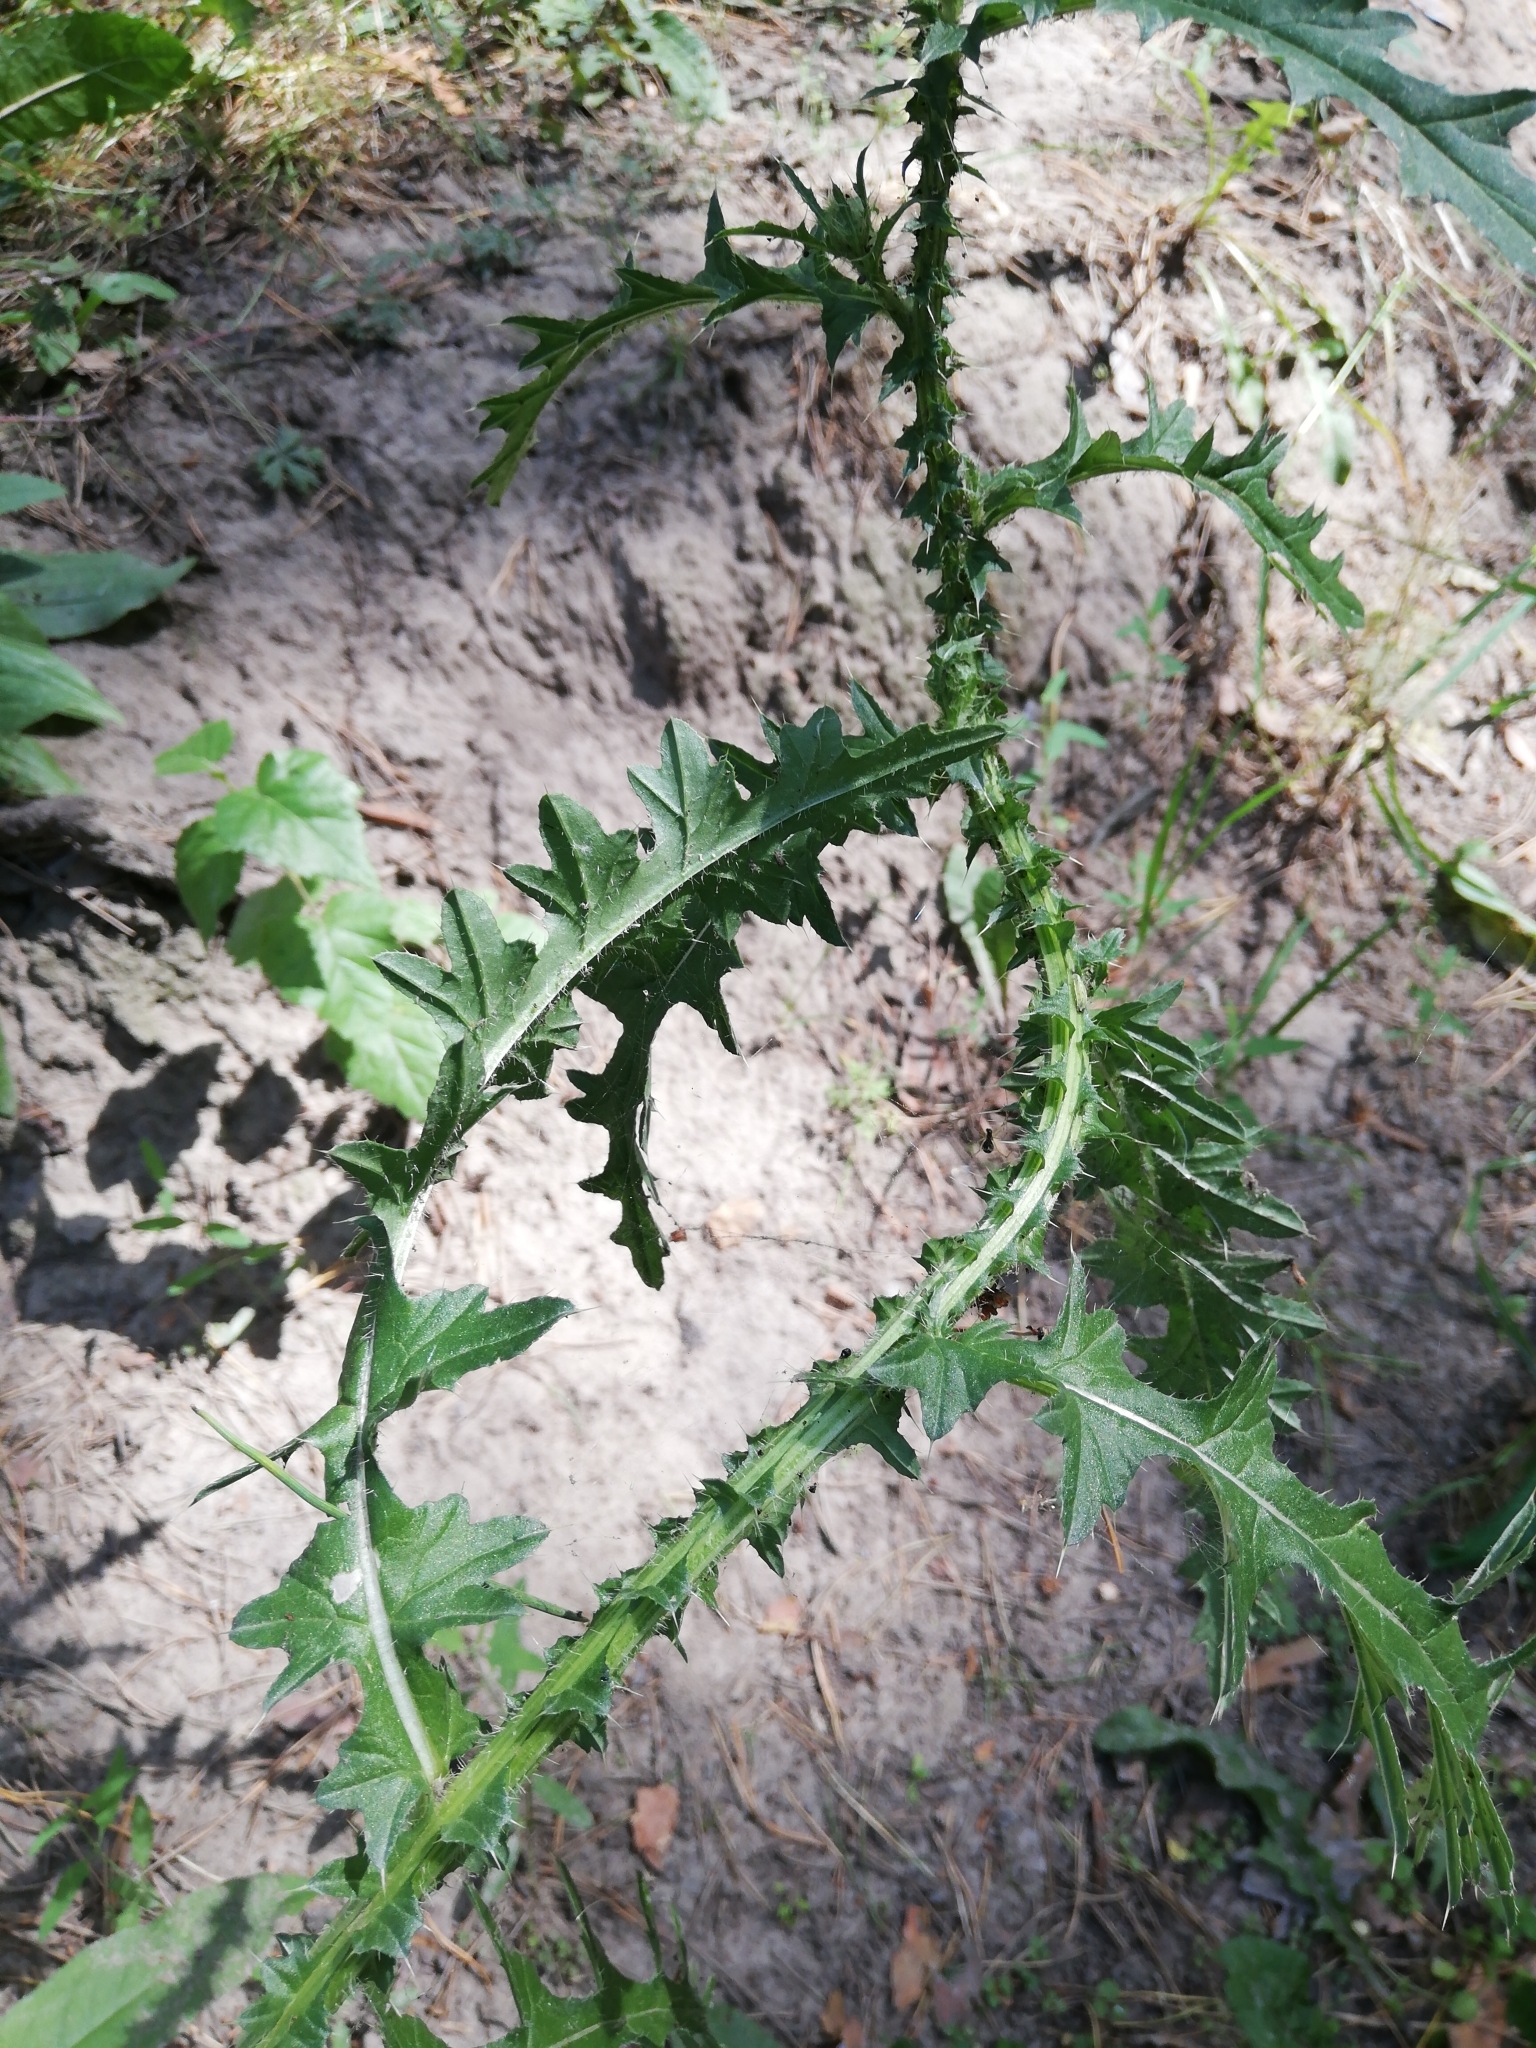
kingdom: Plantae
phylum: Tracheophyta
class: Magnoliopsida
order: Asterales
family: Asteraceae
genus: Carduus
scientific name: Carduus crispus
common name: Welted thistle
